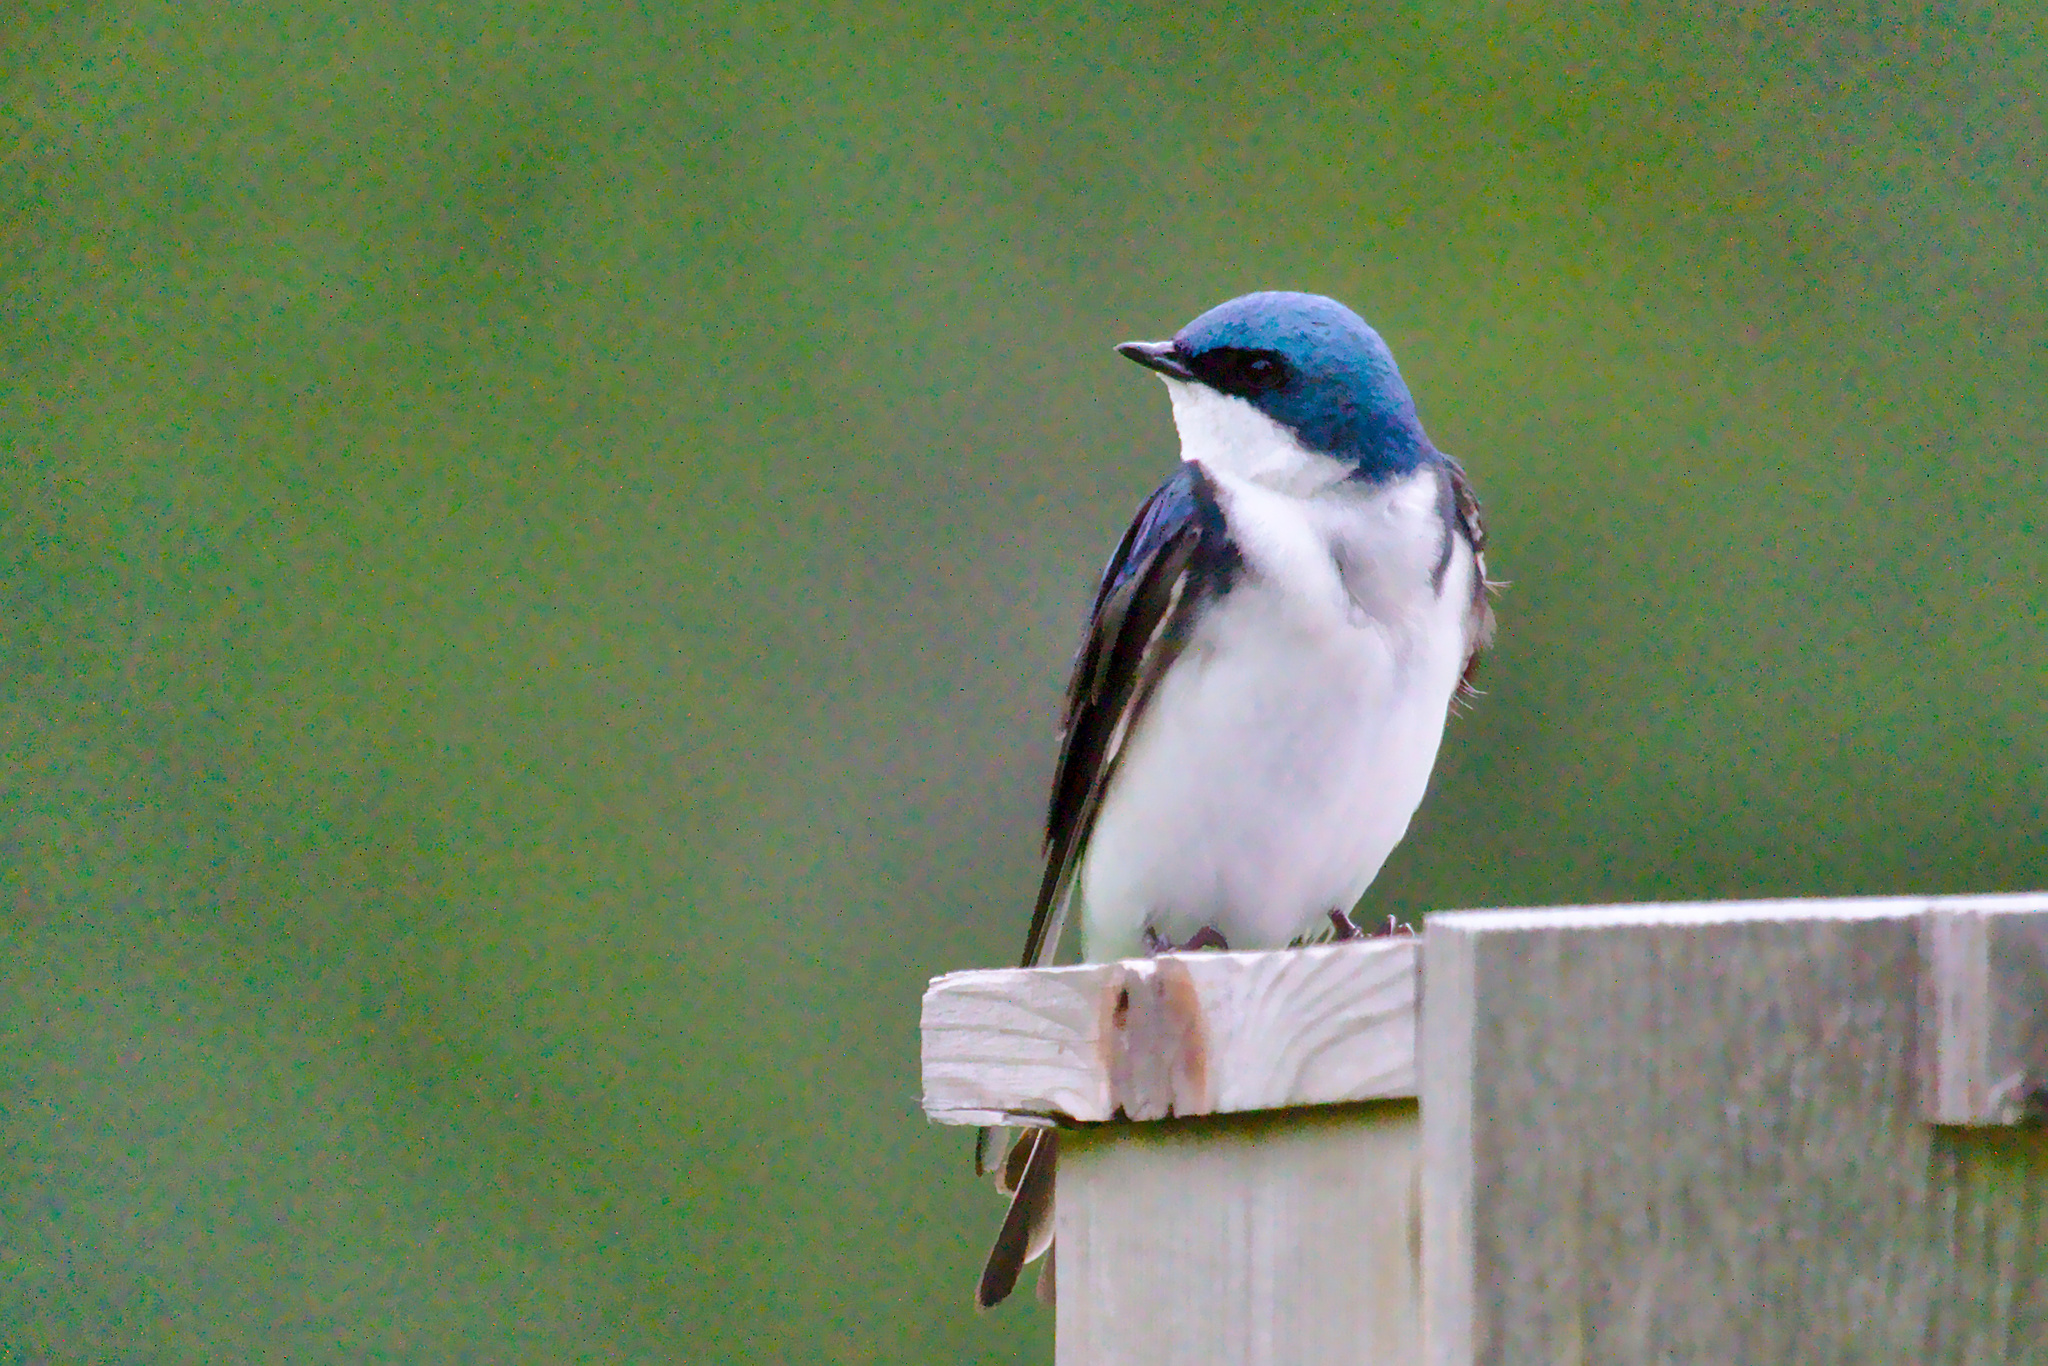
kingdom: Animalia
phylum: Chordata
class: Aves
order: Passeriformes
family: Hirundinidae
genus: Tachycineta
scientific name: Tachycineta bicolor
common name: Tree swallow
